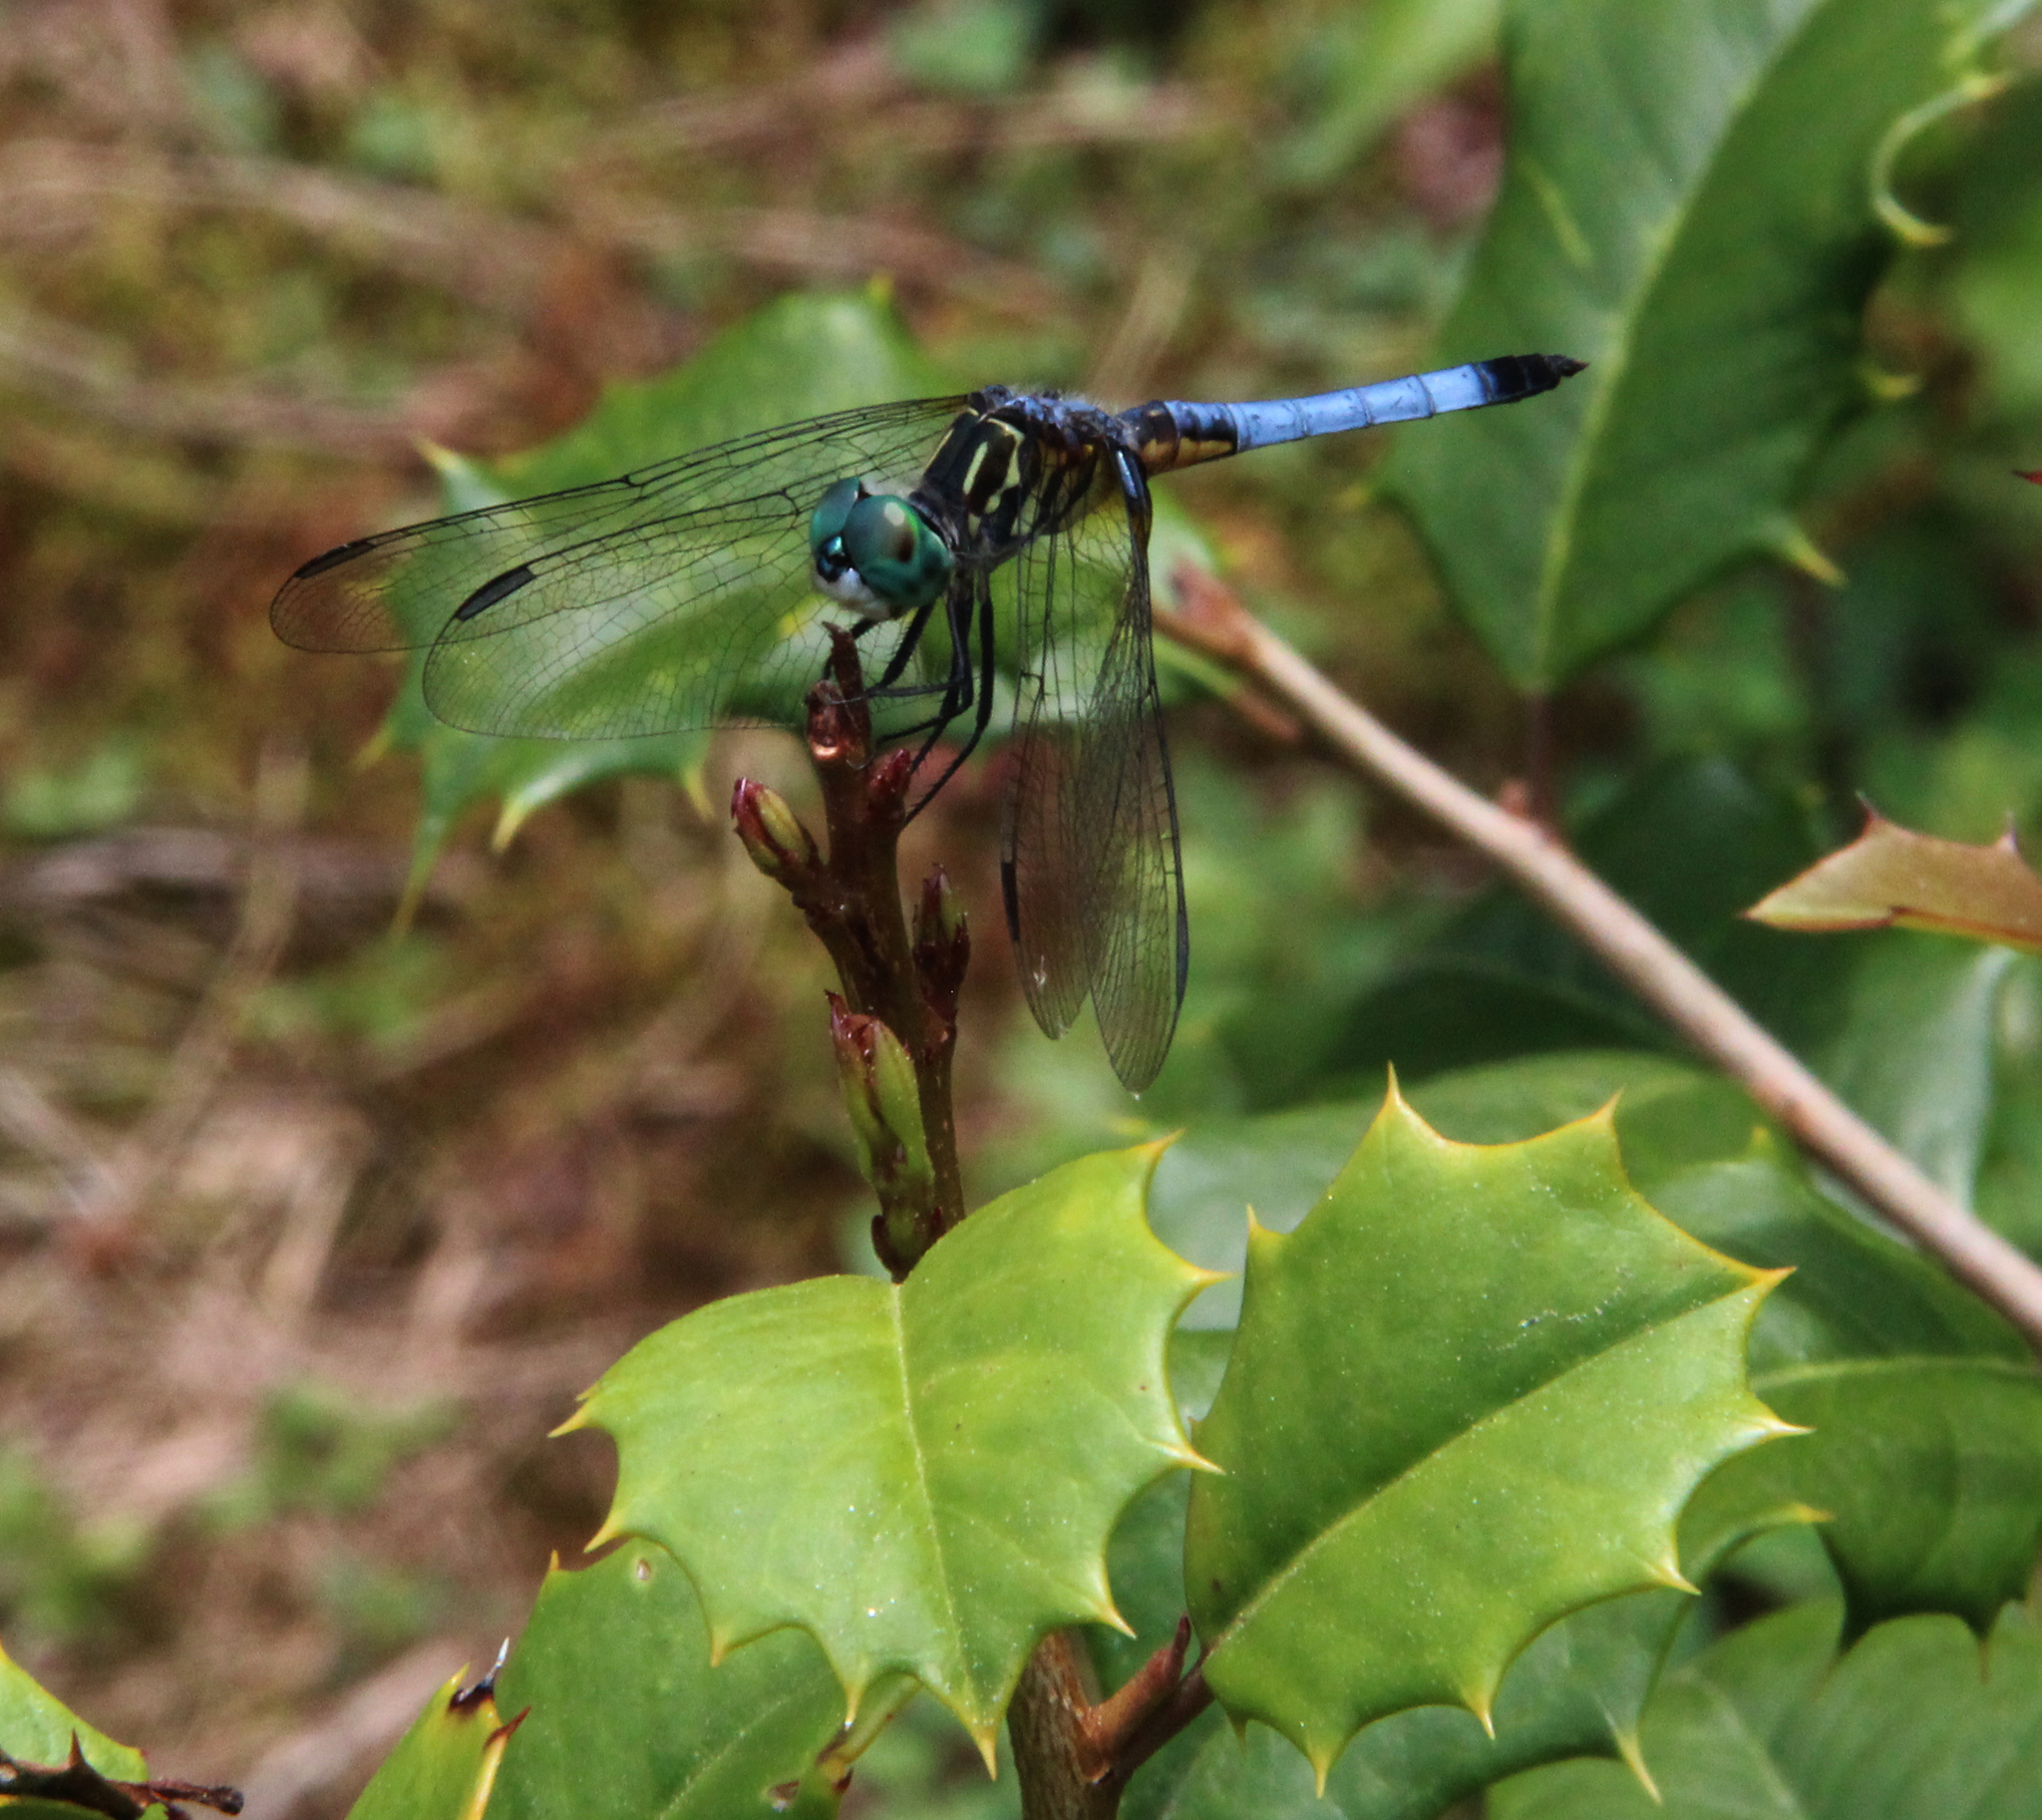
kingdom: Animalia
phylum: Arthropoda
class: Insecta
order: Odonata
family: Libellulidae
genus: Pachydiplax
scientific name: Pachydiplax longipennis
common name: Blue dasher
